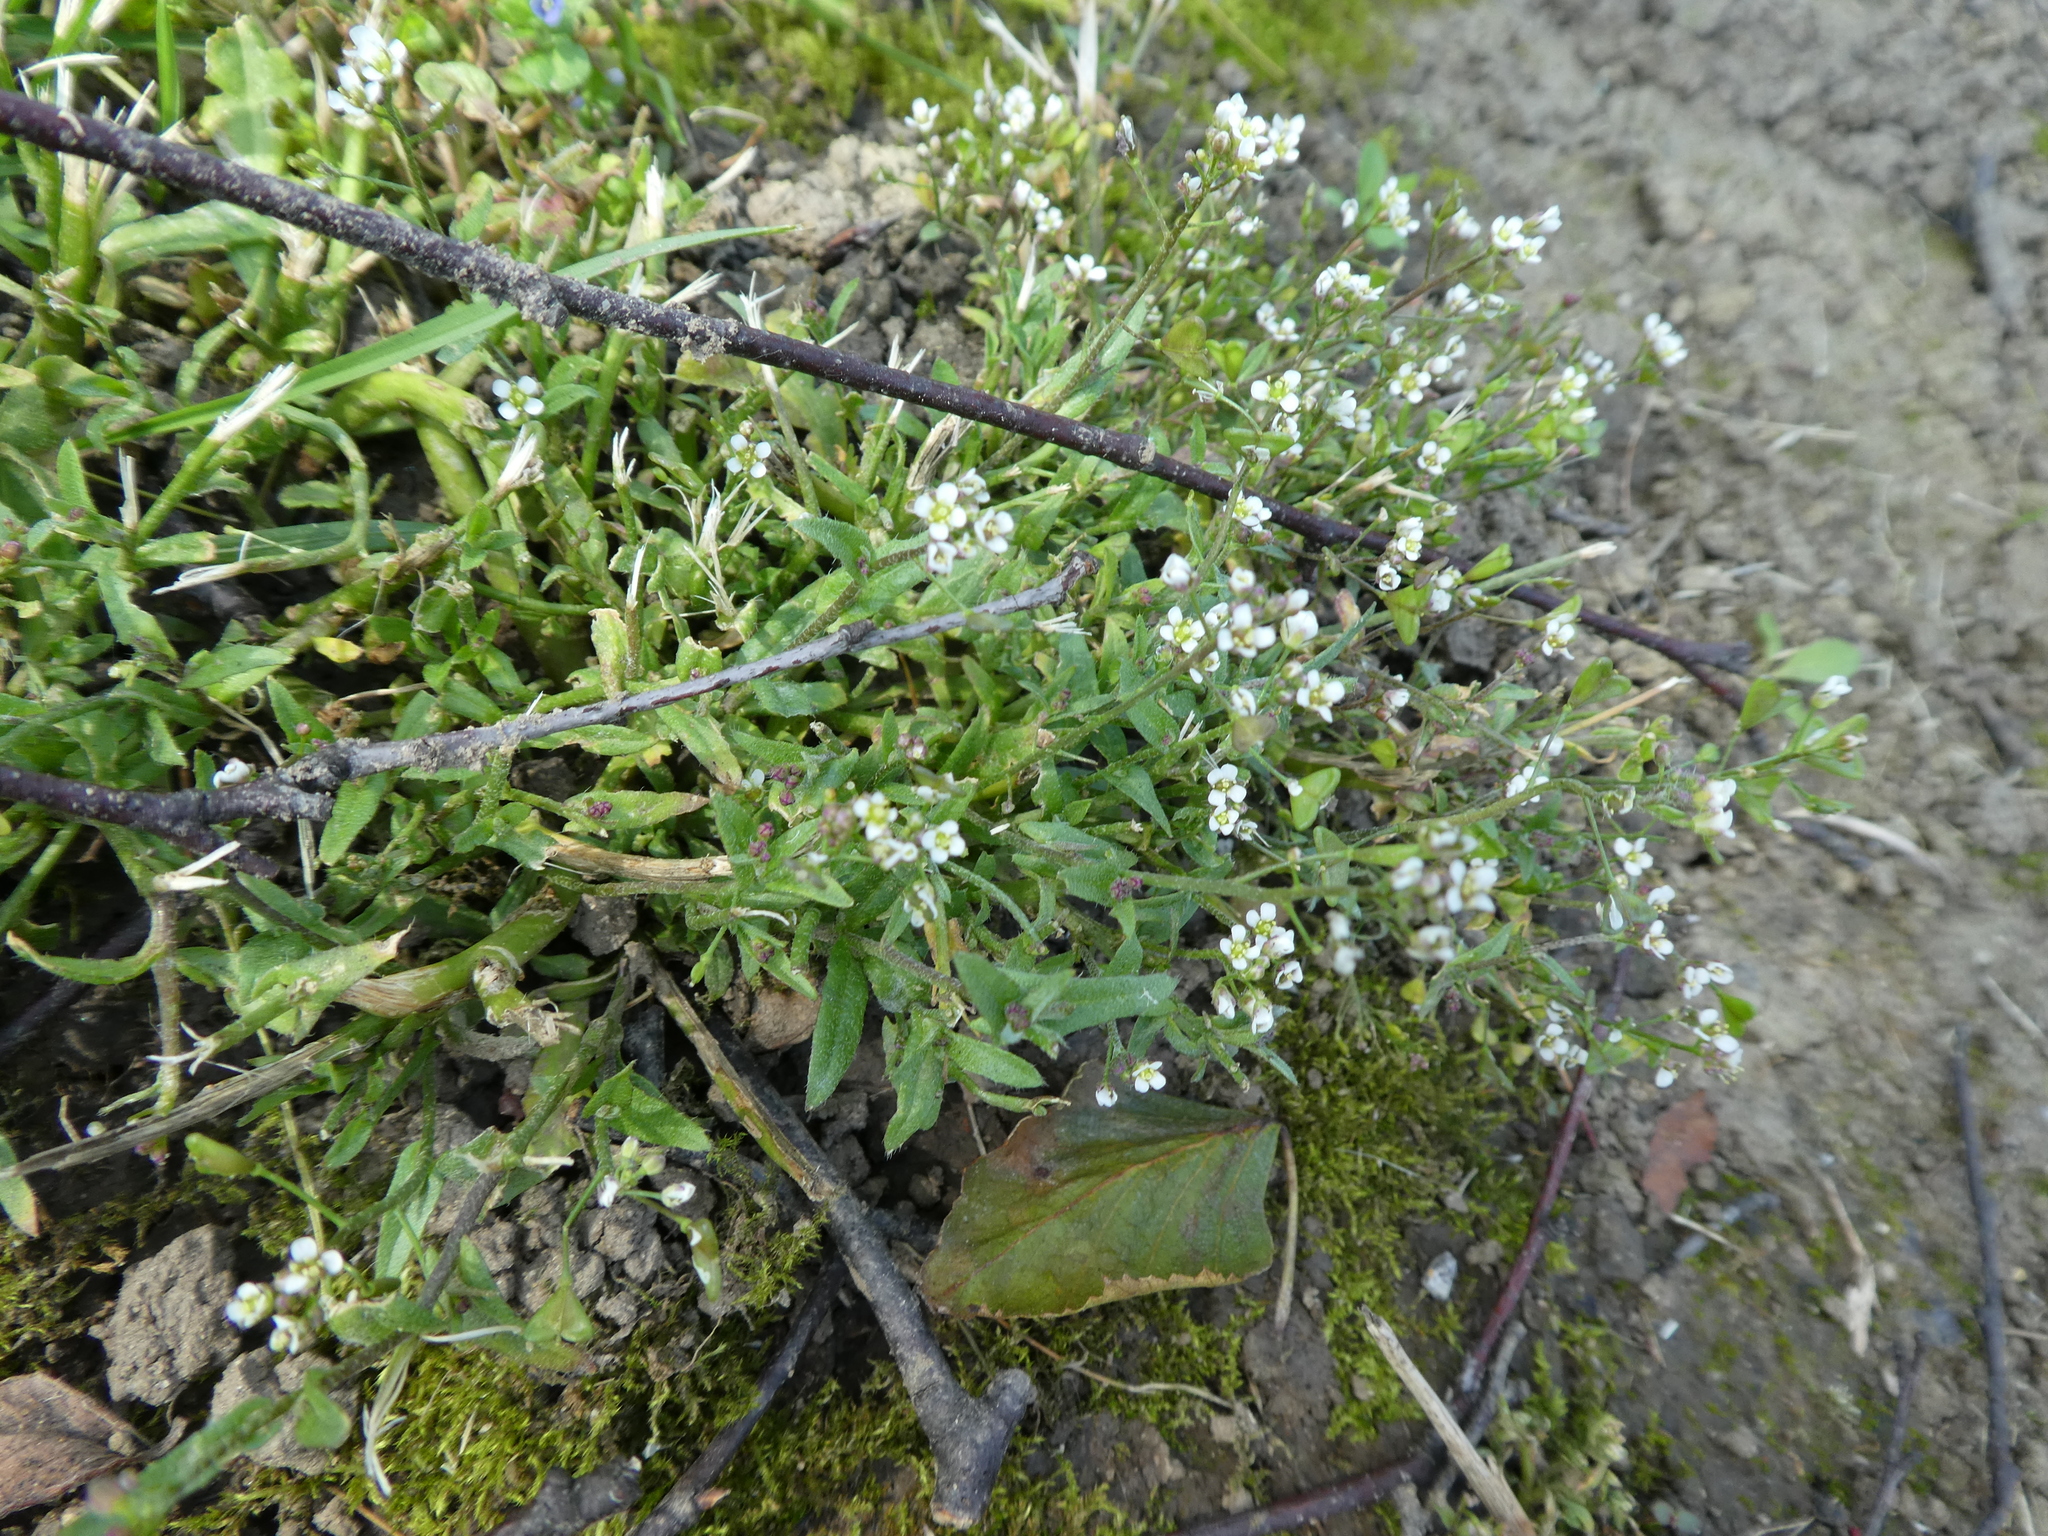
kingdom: Plantae
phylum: Tracheophyta
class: Magnoliopsida
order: Brassicales
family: Brassicaceae
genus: Capsella
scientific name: Capsella bursa-pastoris
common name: Shepherd's purse
